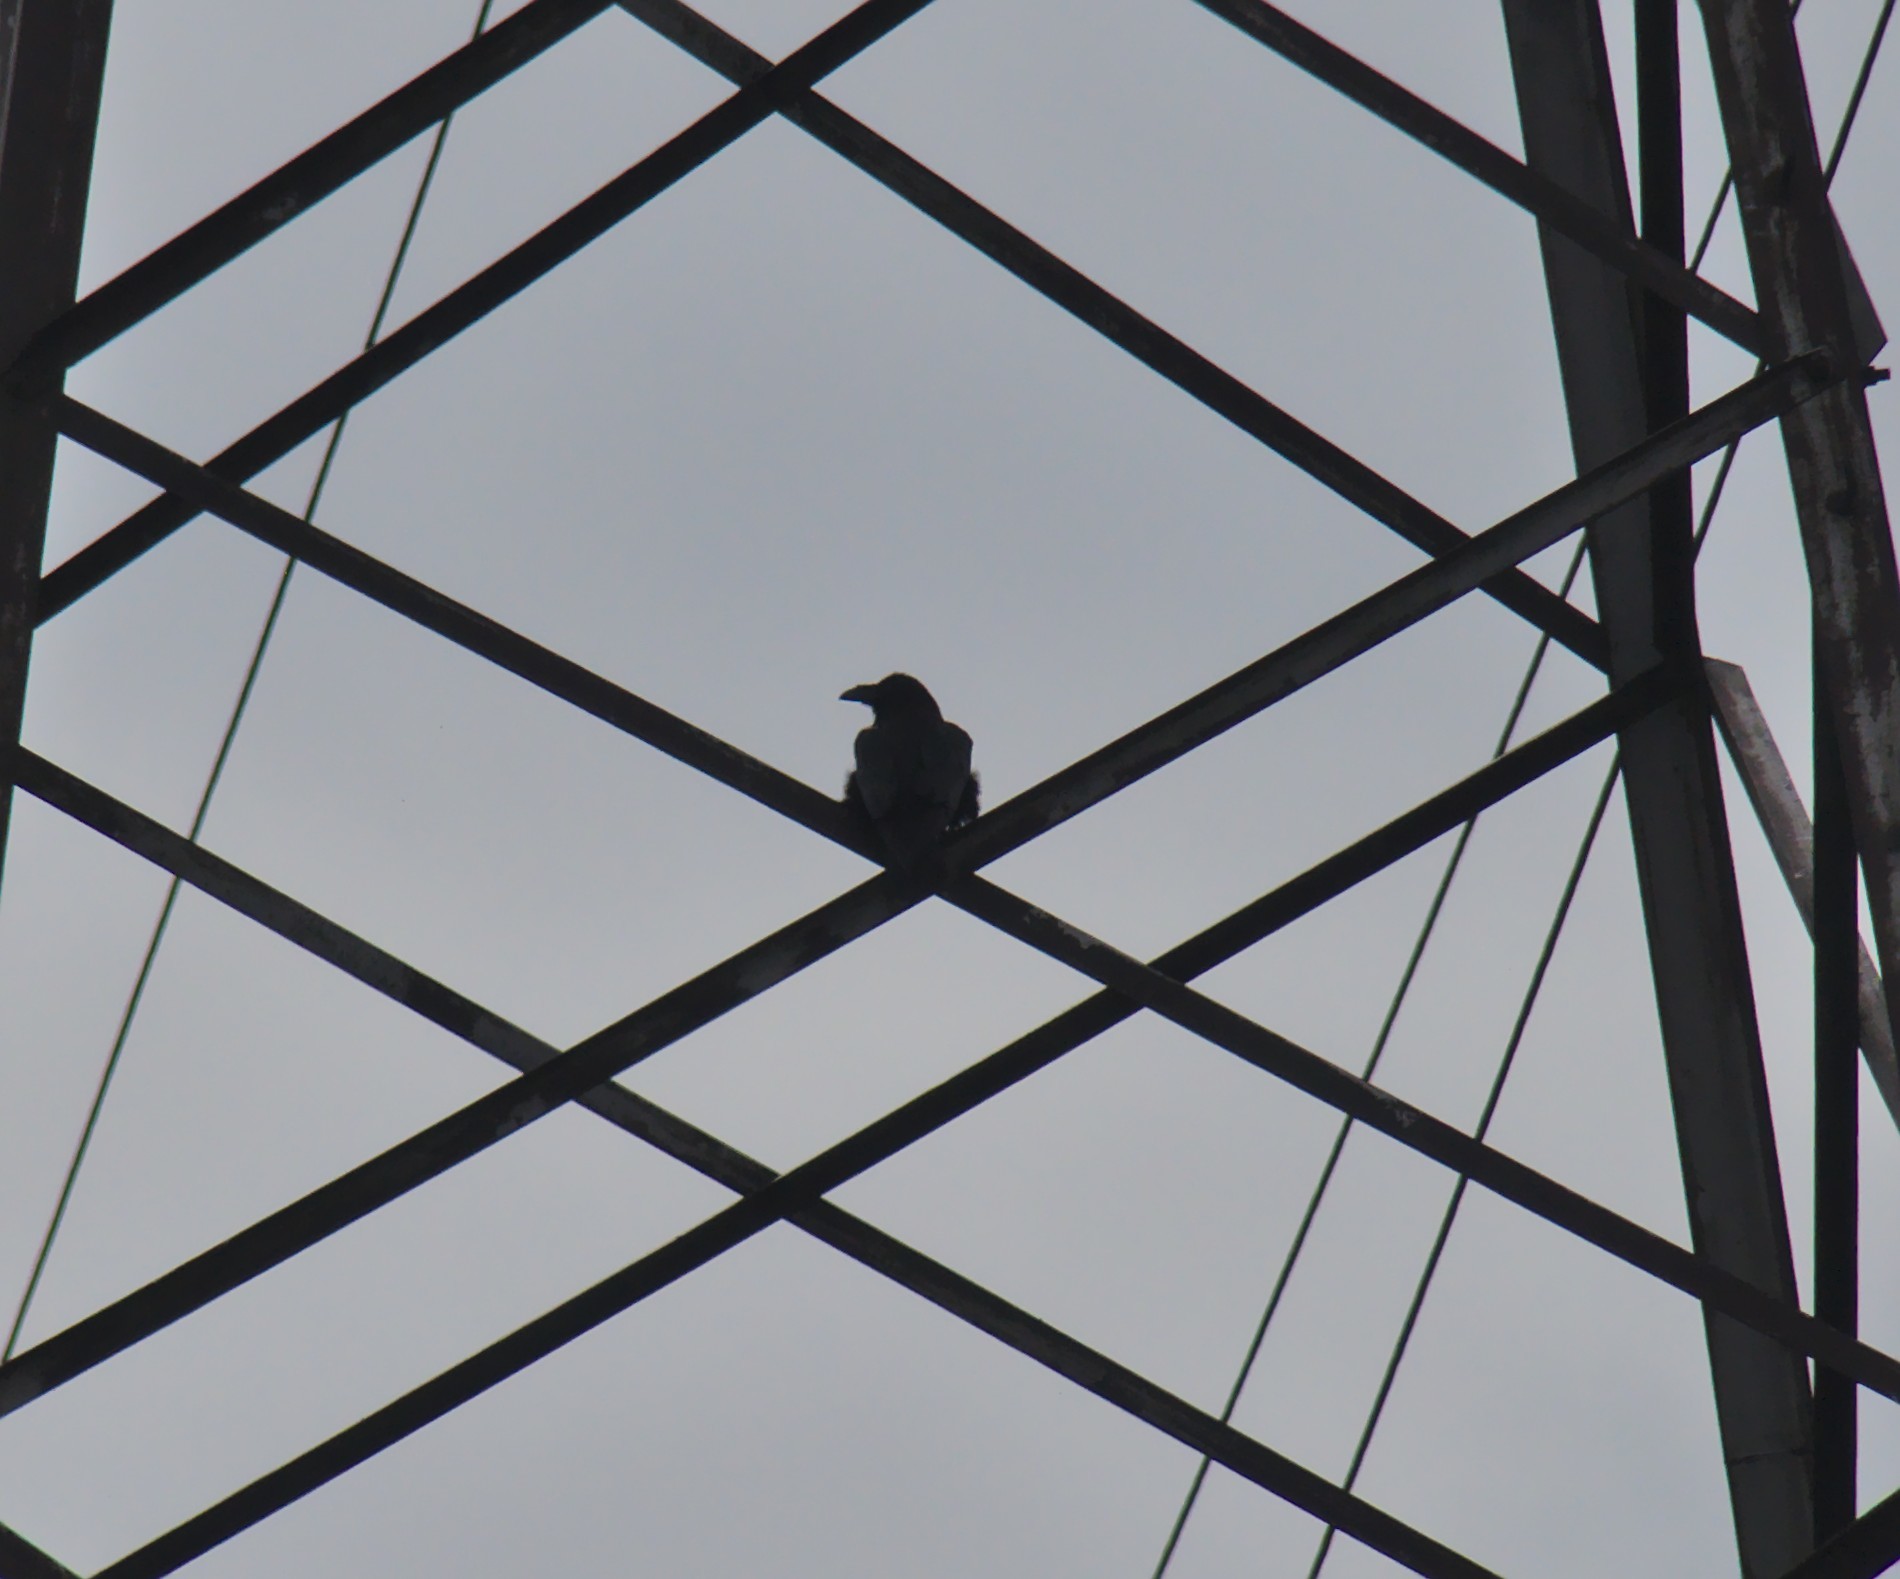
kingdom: Animalia
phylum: Chordata
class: Aves
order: Passeriformes
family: Corvidae
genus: Corvus
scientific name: Corvus corax
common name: Common raven
